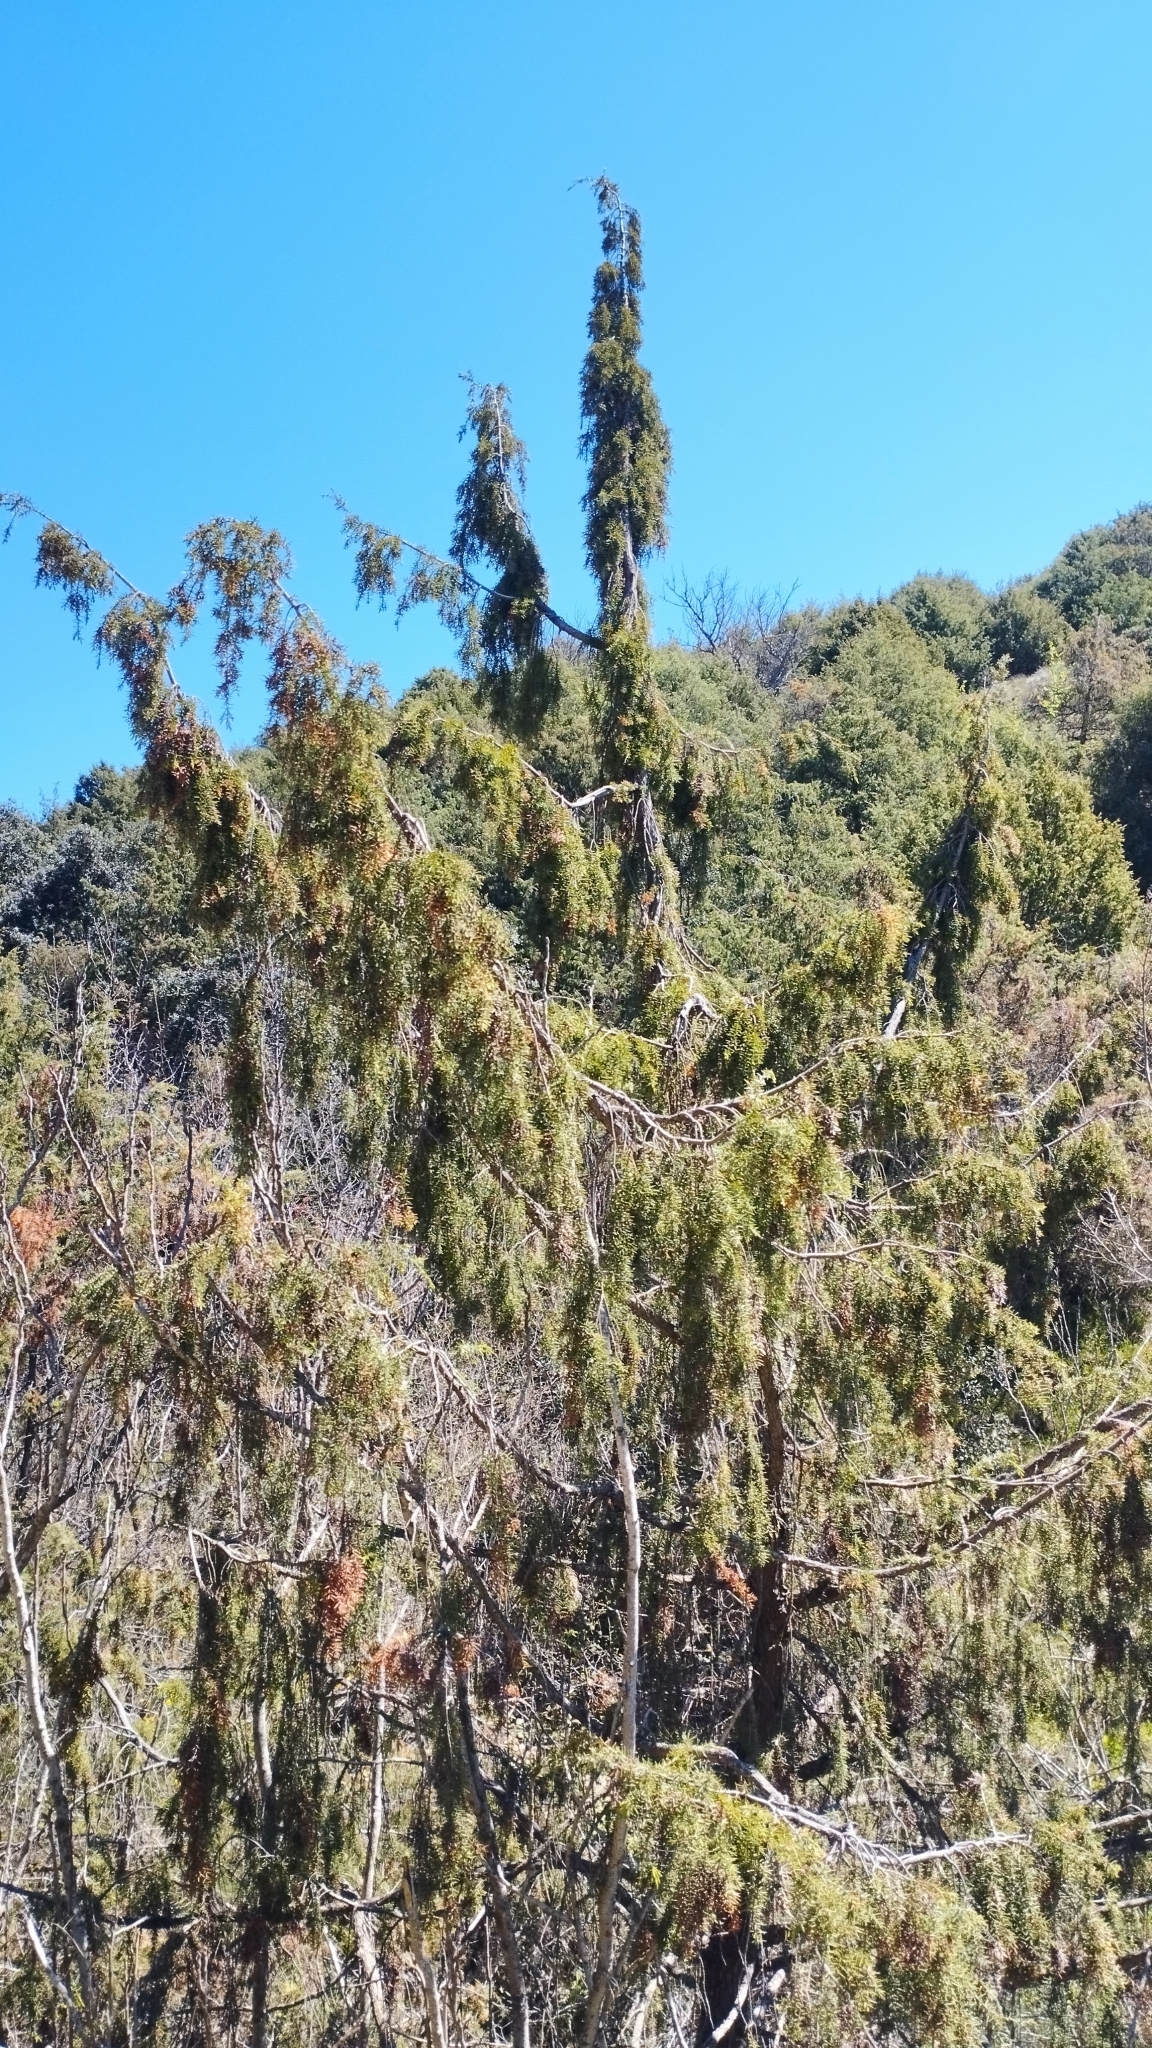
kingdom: Plantae
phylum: Tracheophyta
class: Pinopsida
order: Pinales
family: Cupressaceae
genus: Juniperus
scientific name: Juniperus oxycedrus
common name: Prickly juniper
